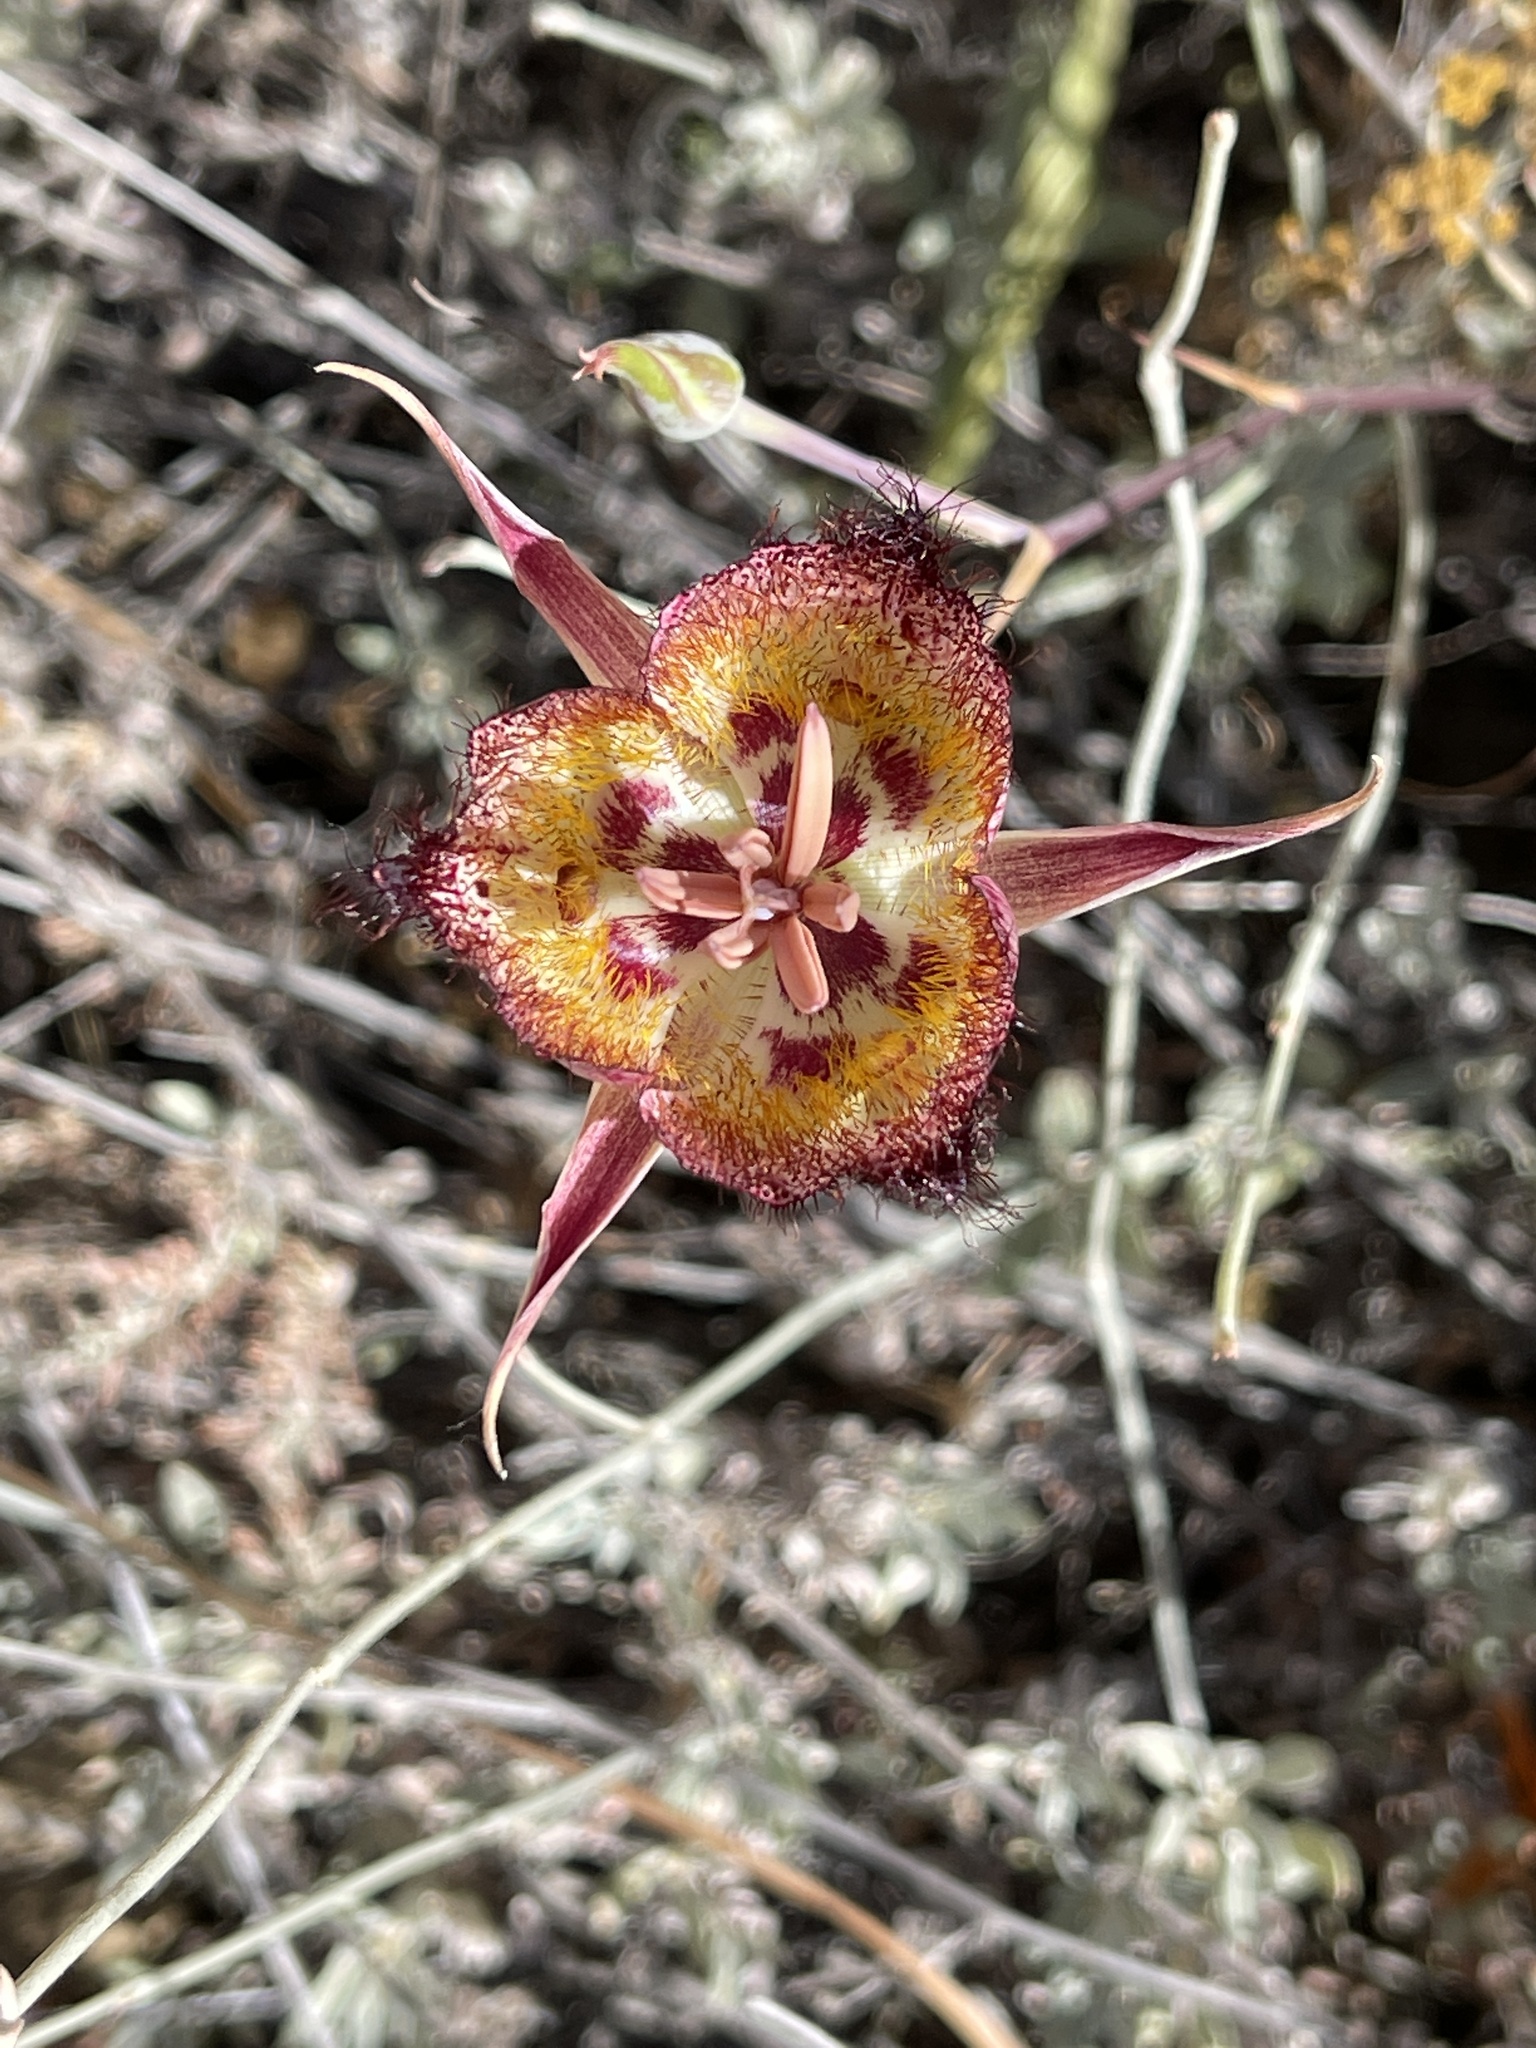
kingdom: Plantae
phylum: Tracheophyta
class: Liliopsida
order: Liliales
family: Liliaceae
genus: Calochortus
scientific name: Calochortus fimbriatus
